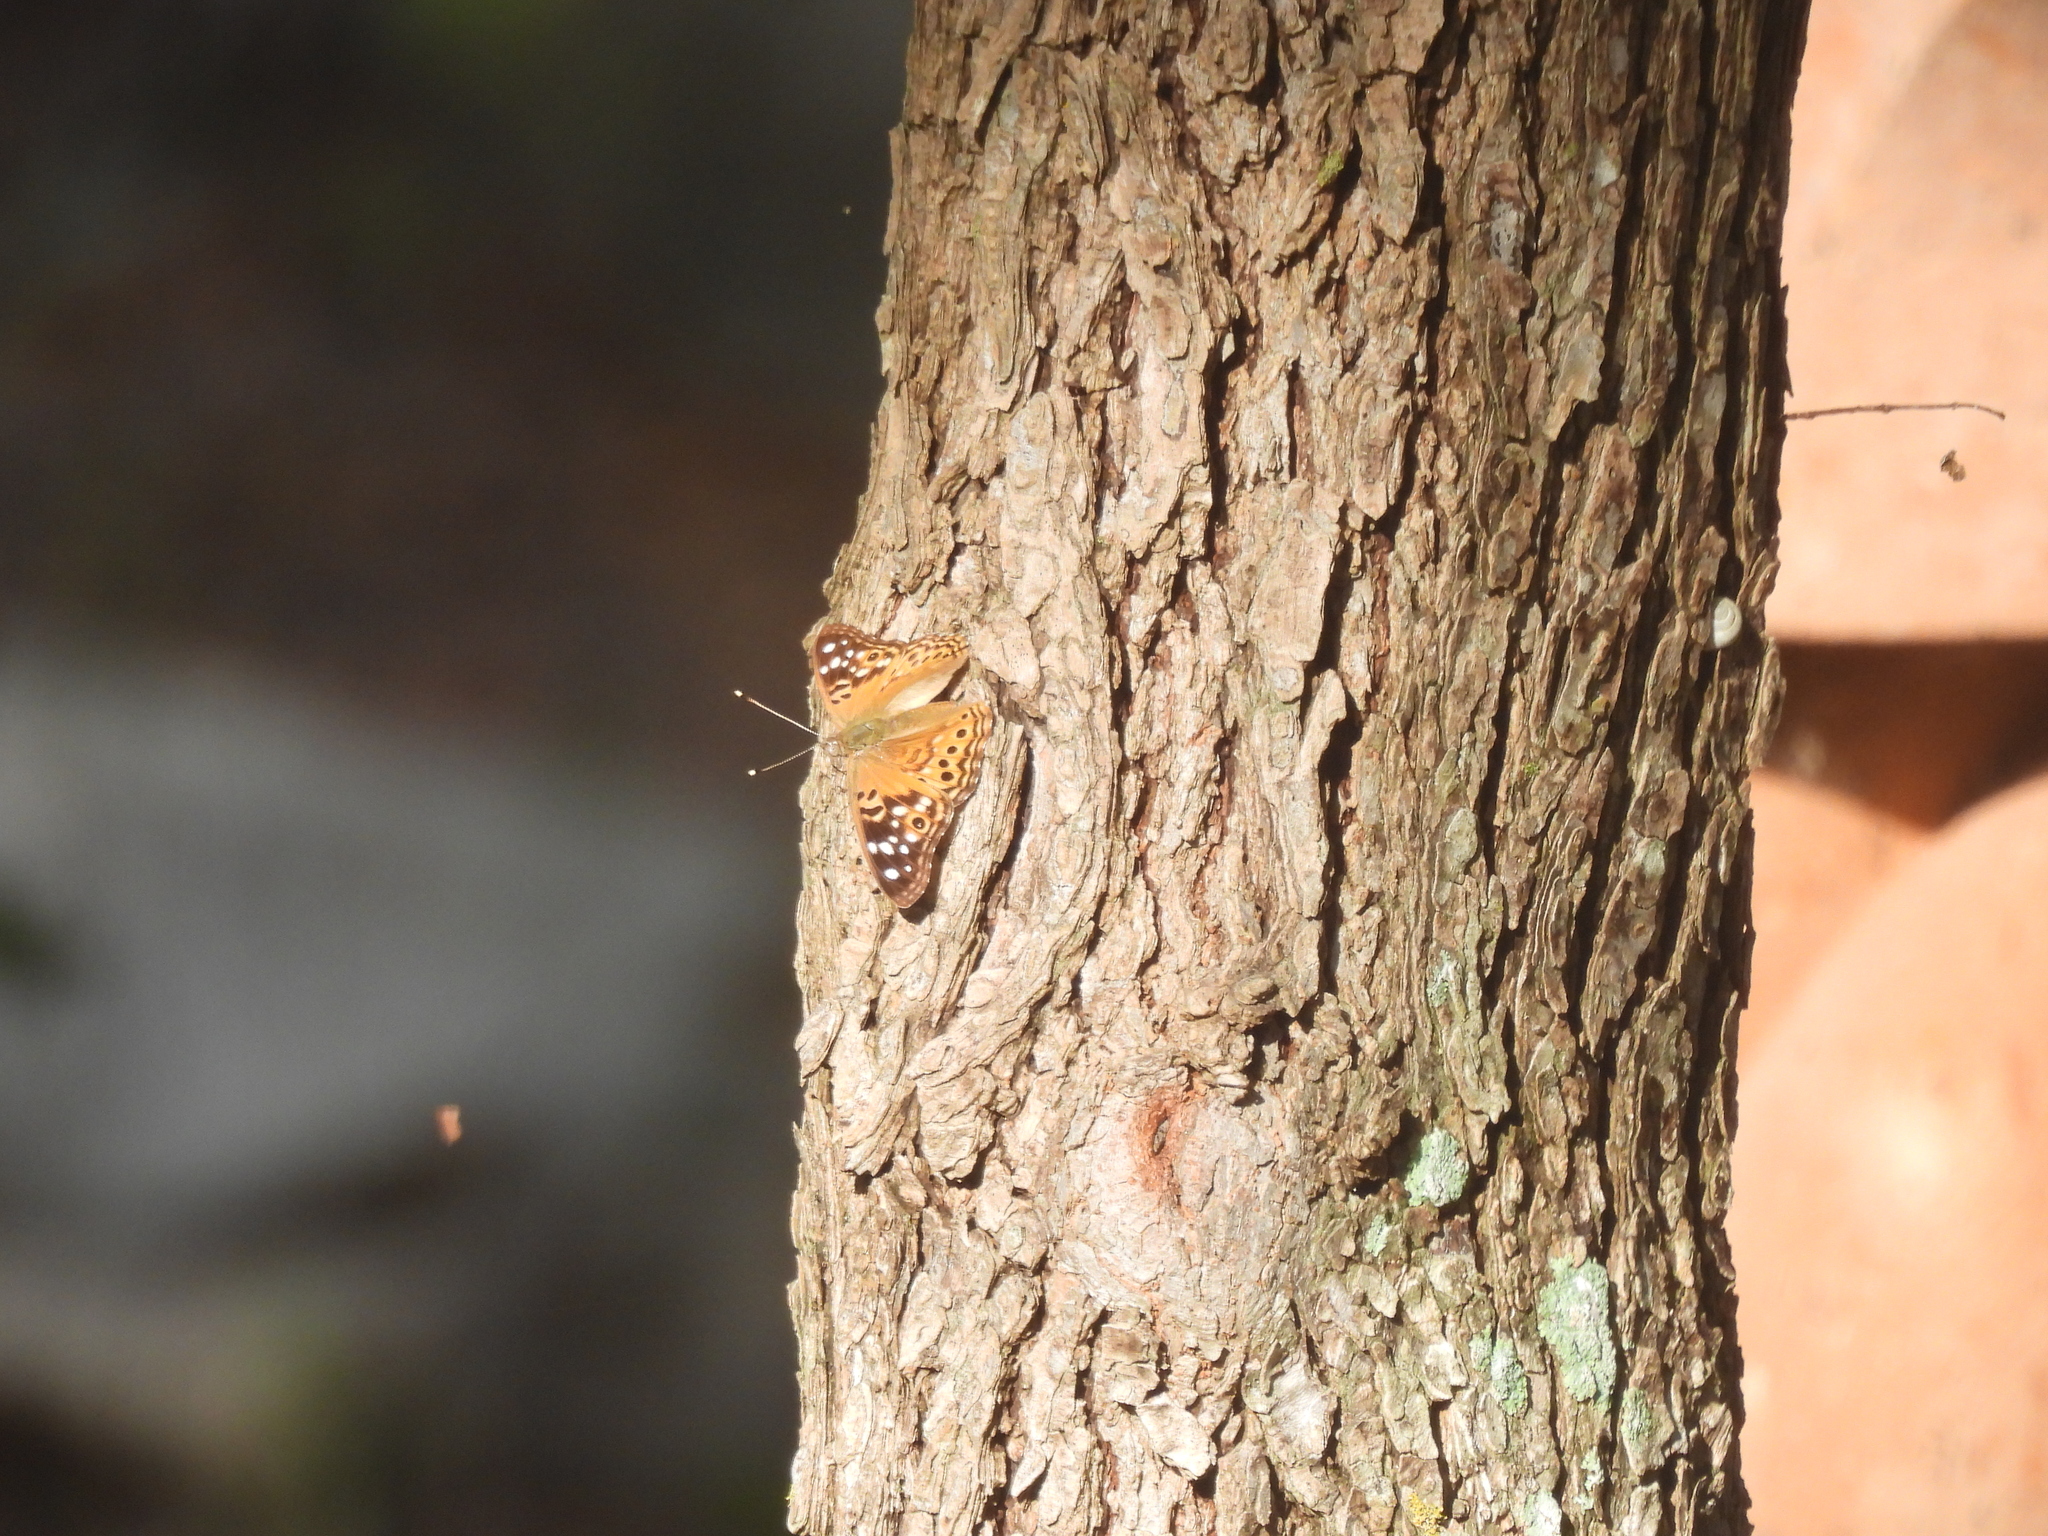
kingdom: Animalia
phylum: Arthropoda
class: Insecta
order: Lepidoptera
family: Nymphalidae
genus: Asterocampa
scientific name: Asterocampa celtis
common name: Hackberry emperor
